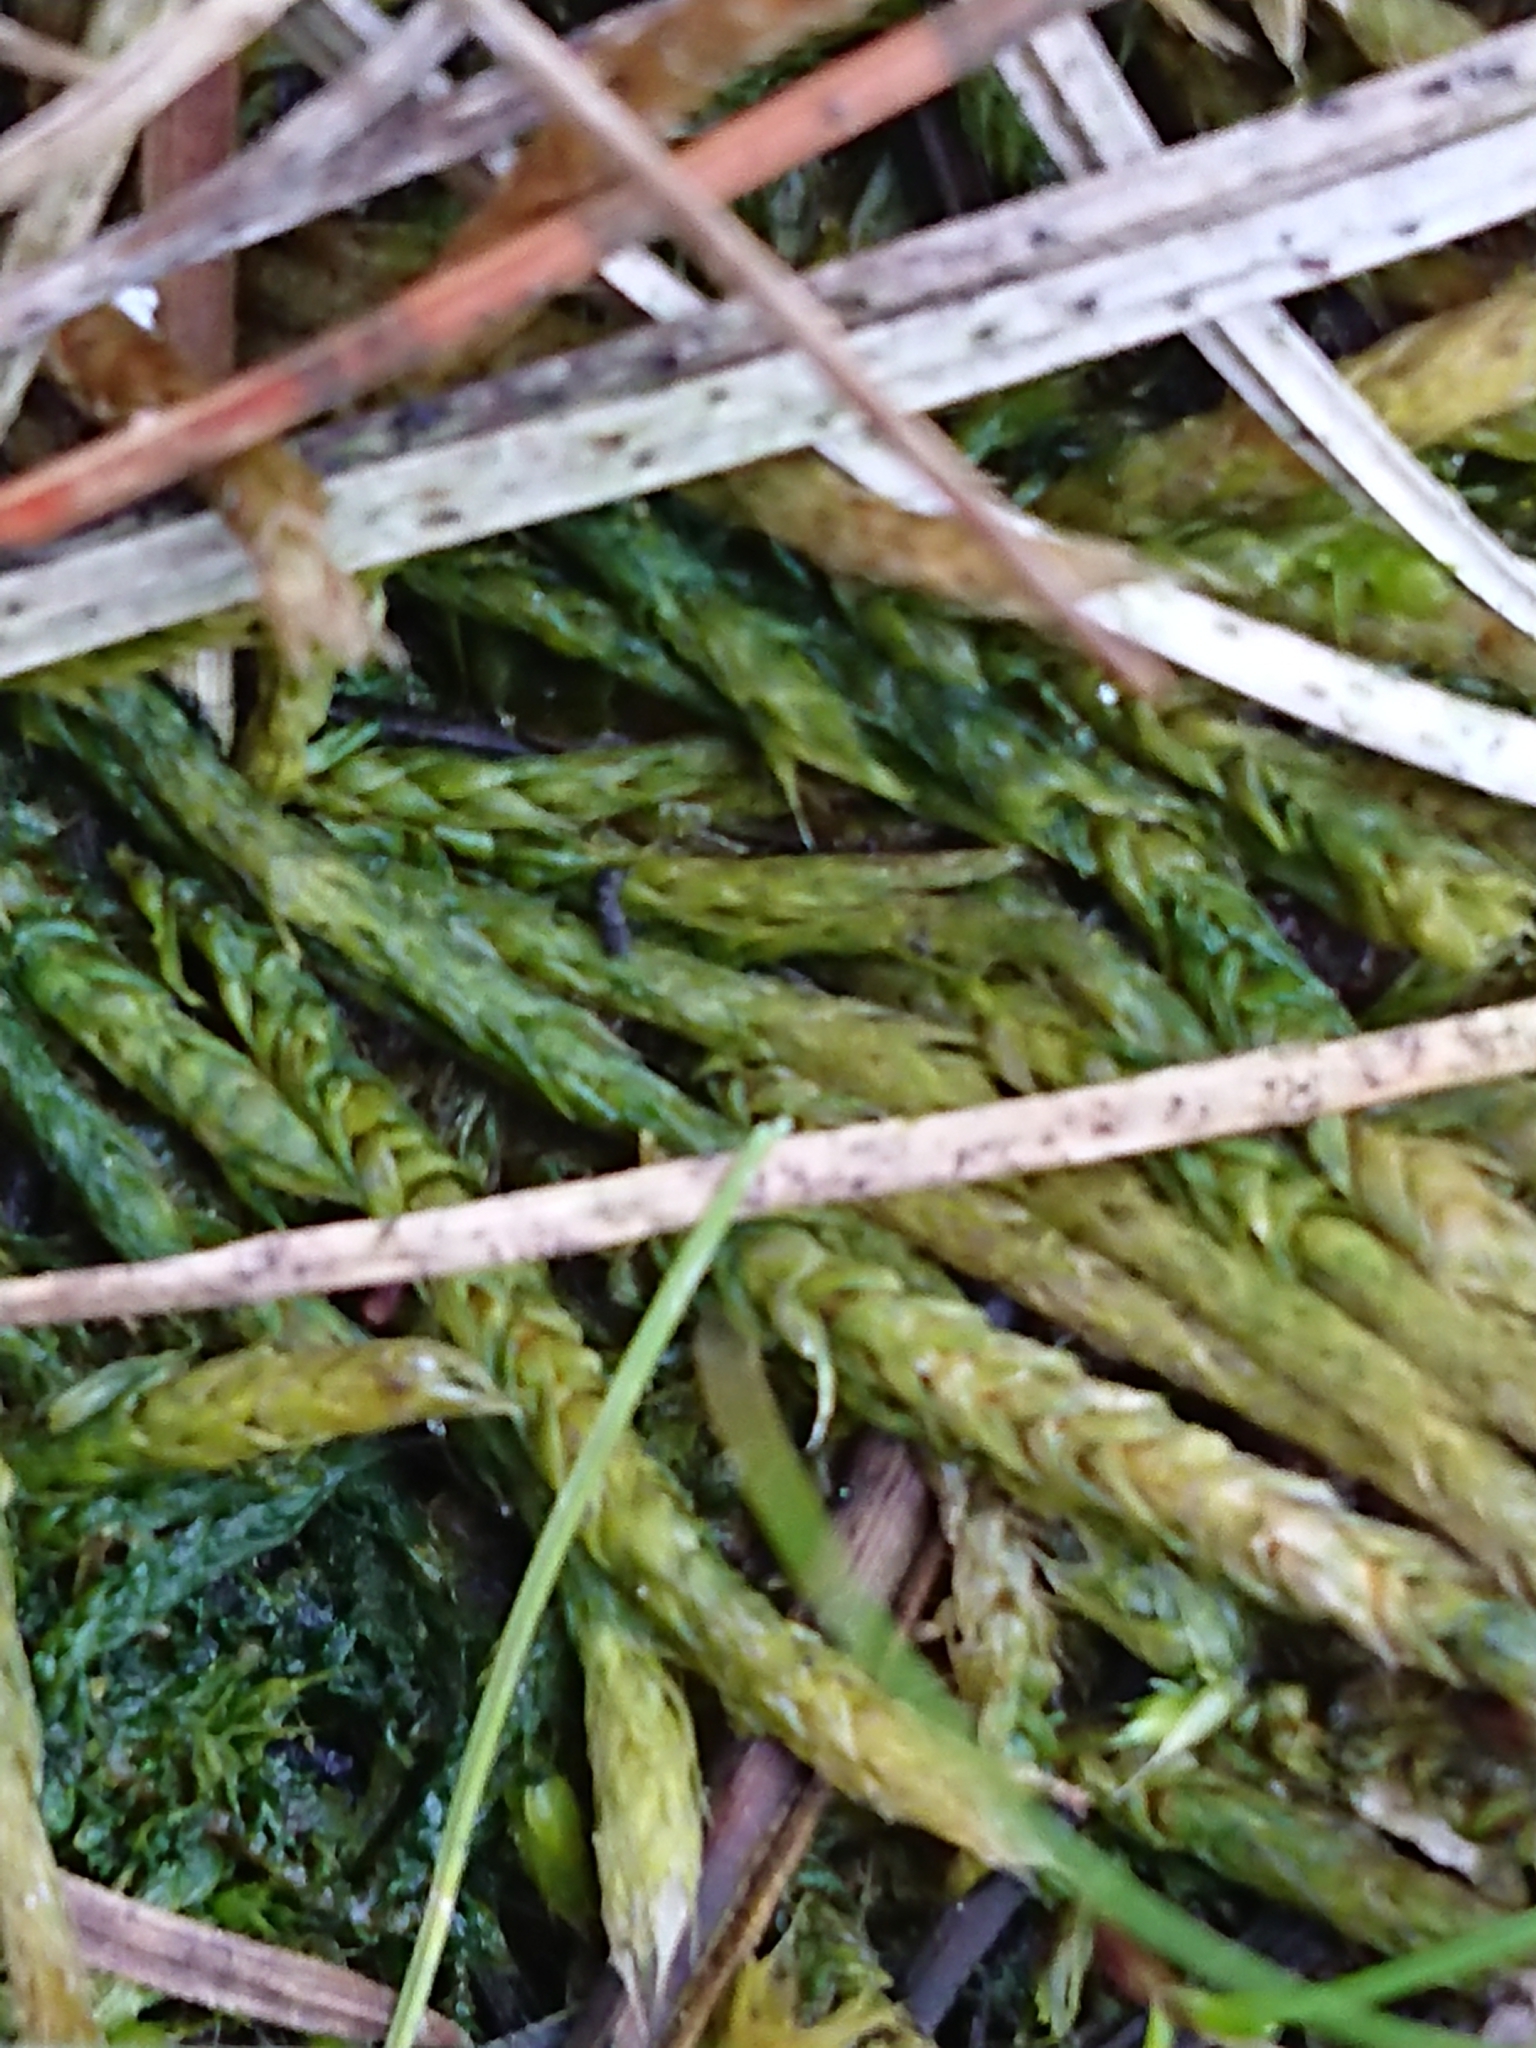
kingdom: Plantae
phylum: Bryophyta
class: Bryopsida
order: Hypnales
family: Acrocladiaceae
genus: Acrocladium
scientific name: Acrocladium chlamydophyllum
